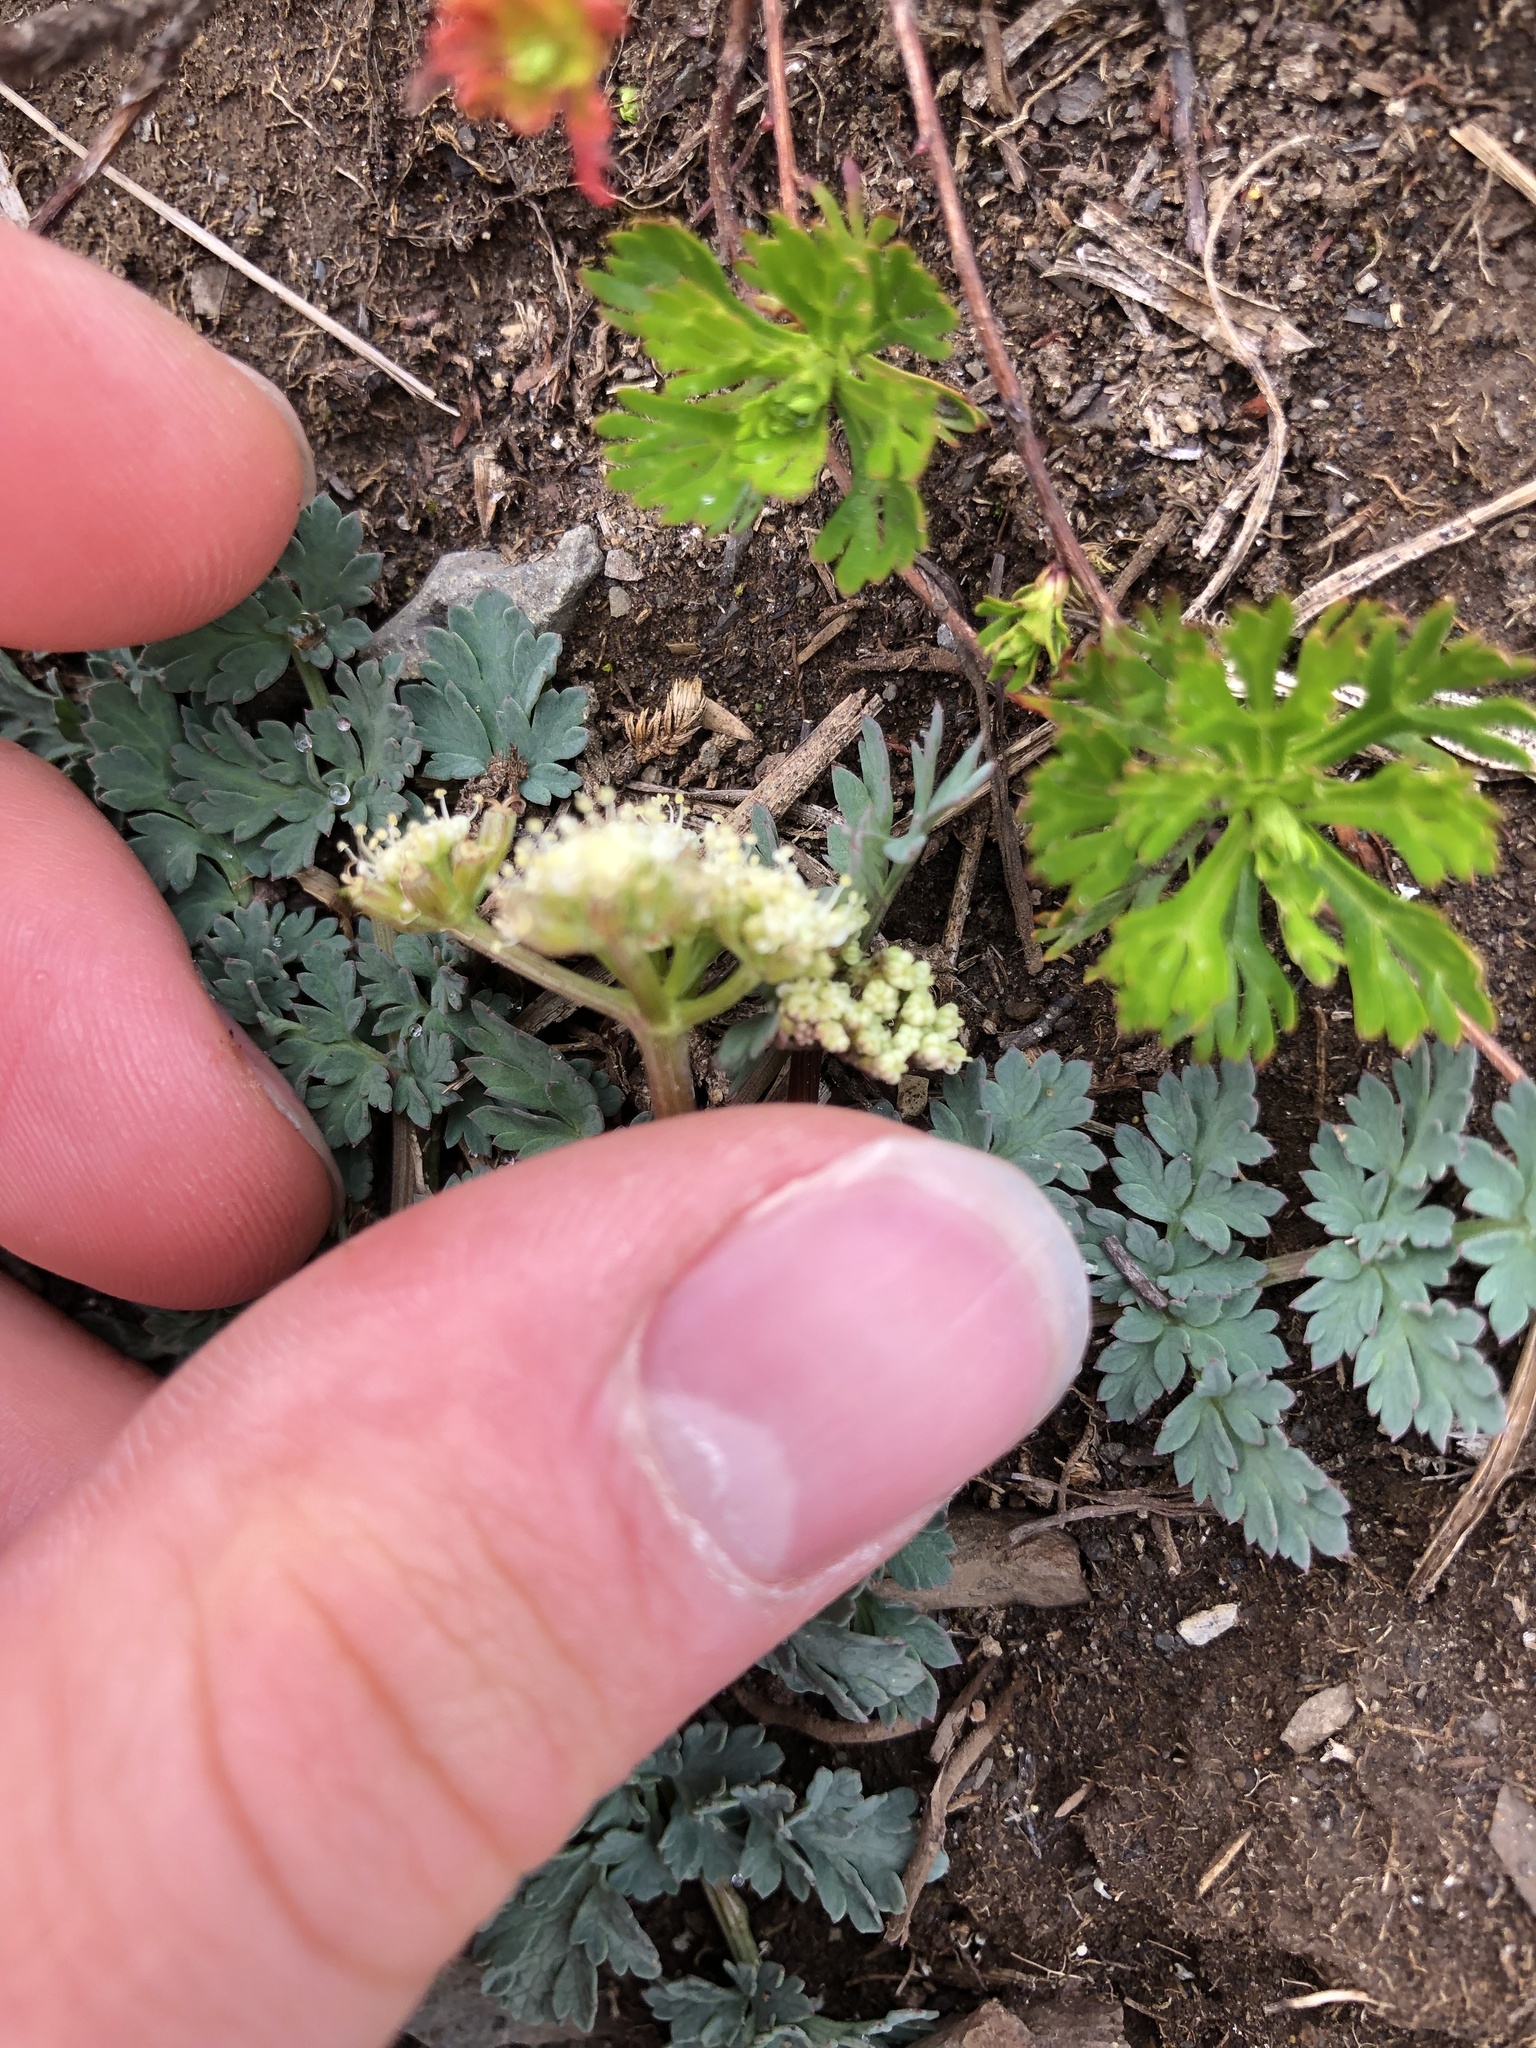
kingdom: Plantae
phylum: Tracheophyta
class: Magnoliopsida
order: Apiales
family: Apiaceae
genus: Lomatium
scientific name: Lomatium martindalei
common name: Cascade desert-parsley
